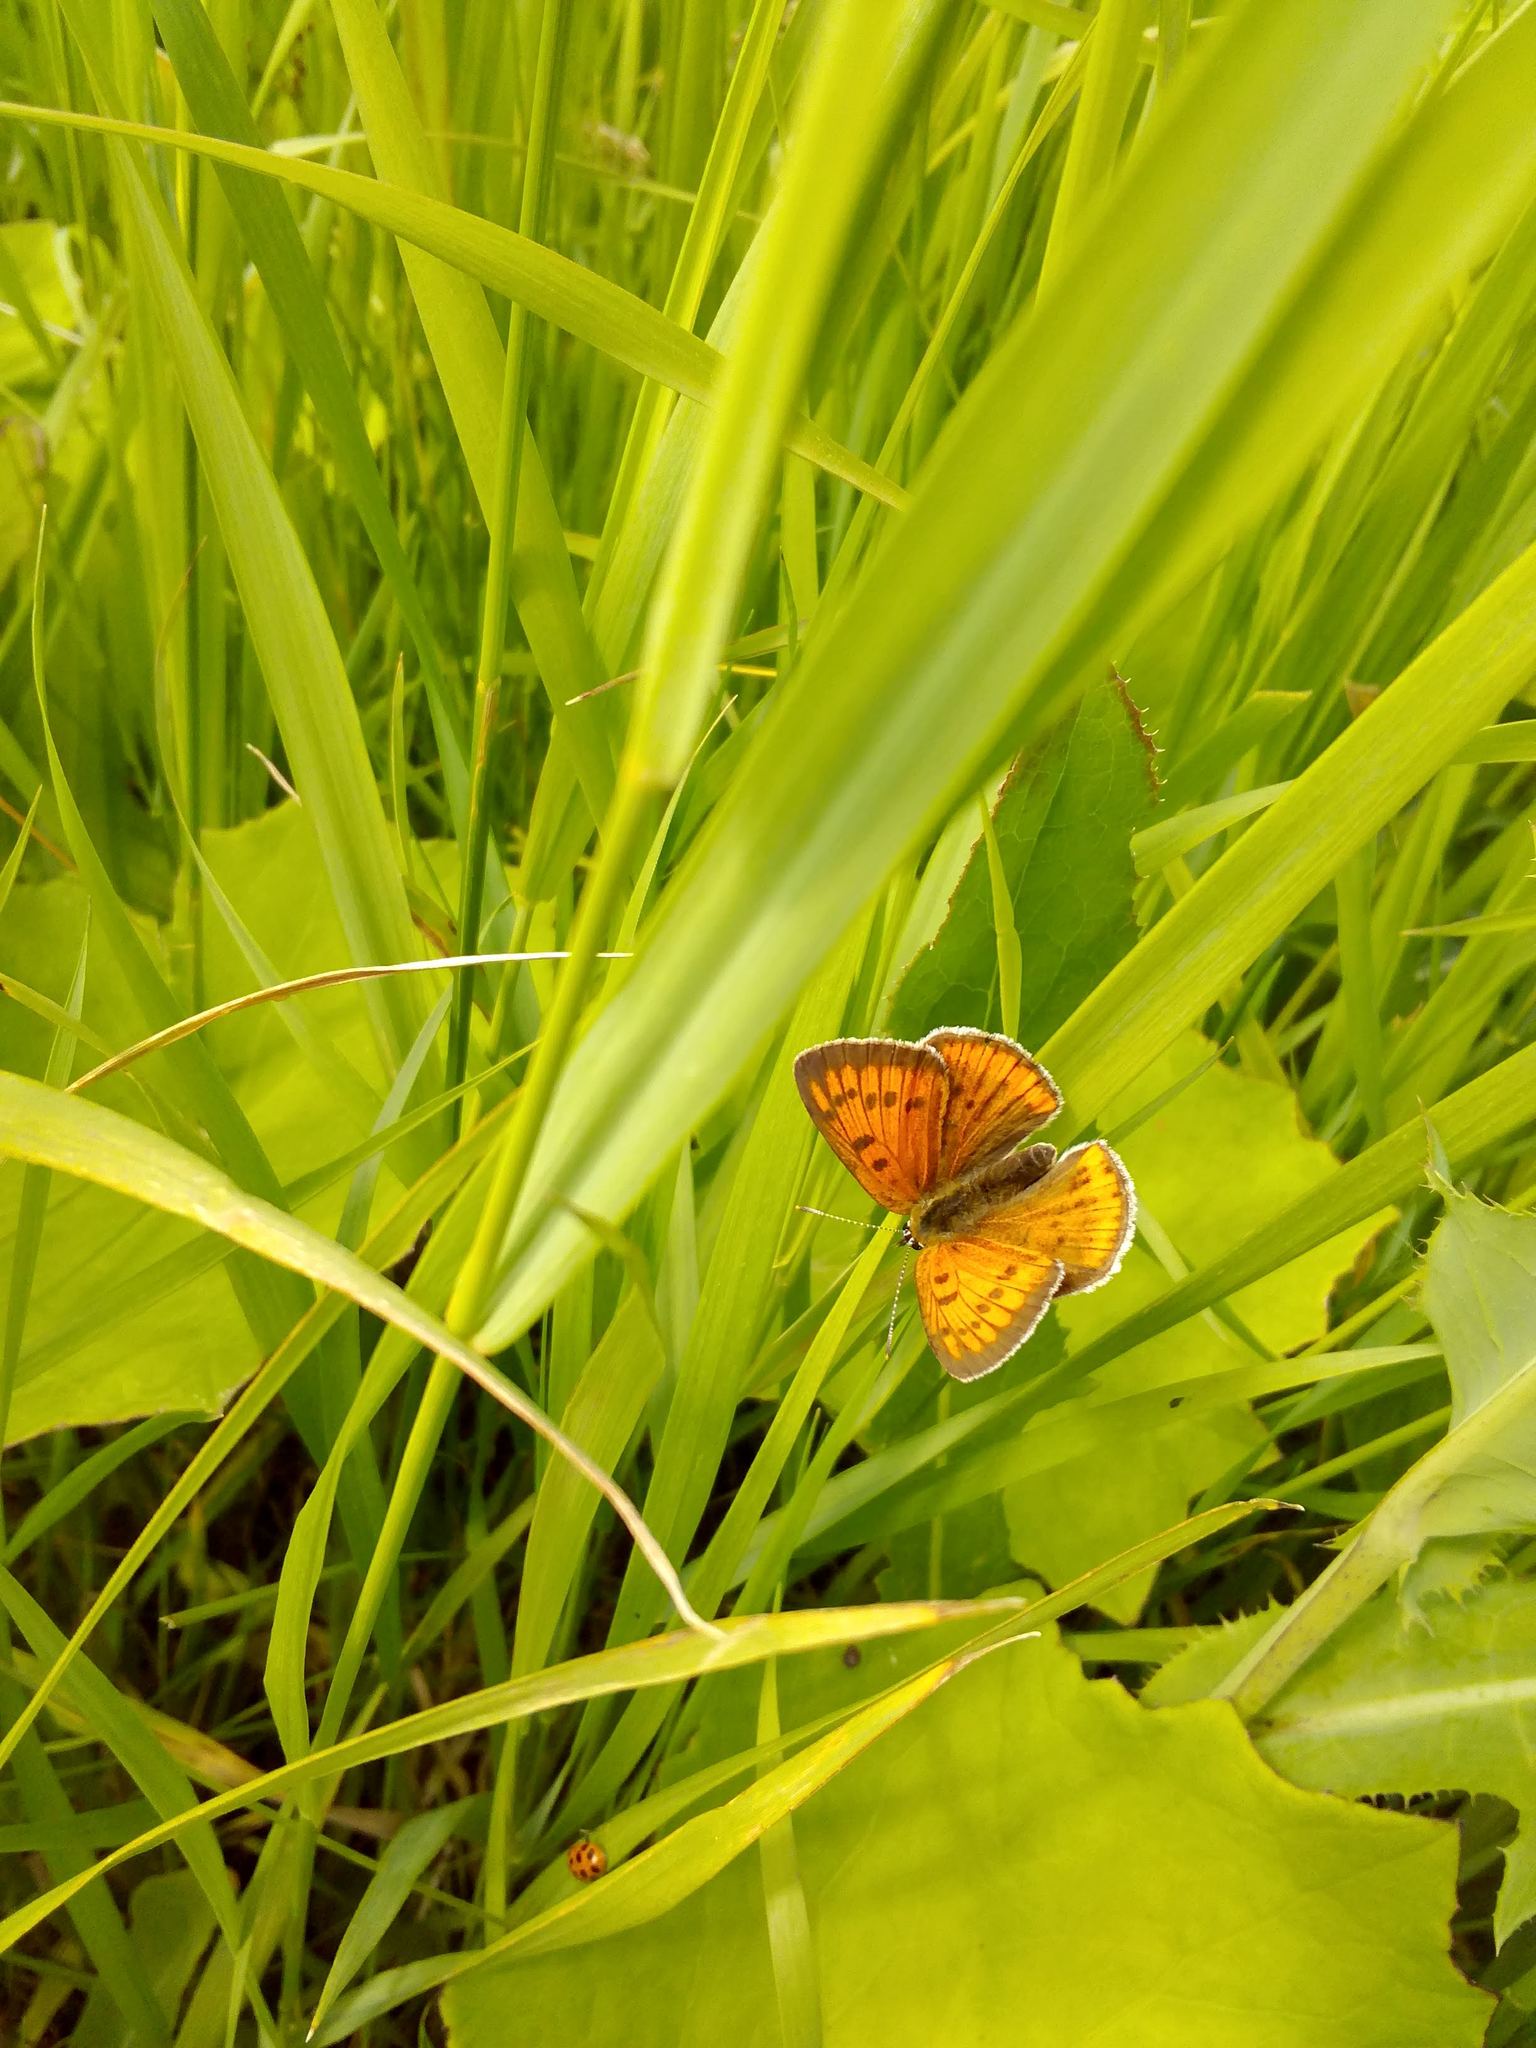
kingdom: Animalia
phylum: Arthropoda
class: Insecta
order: Lepidoptera
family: Lycaenidae
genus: Lycaena
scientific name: Lycaena dispar
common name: Large copper
